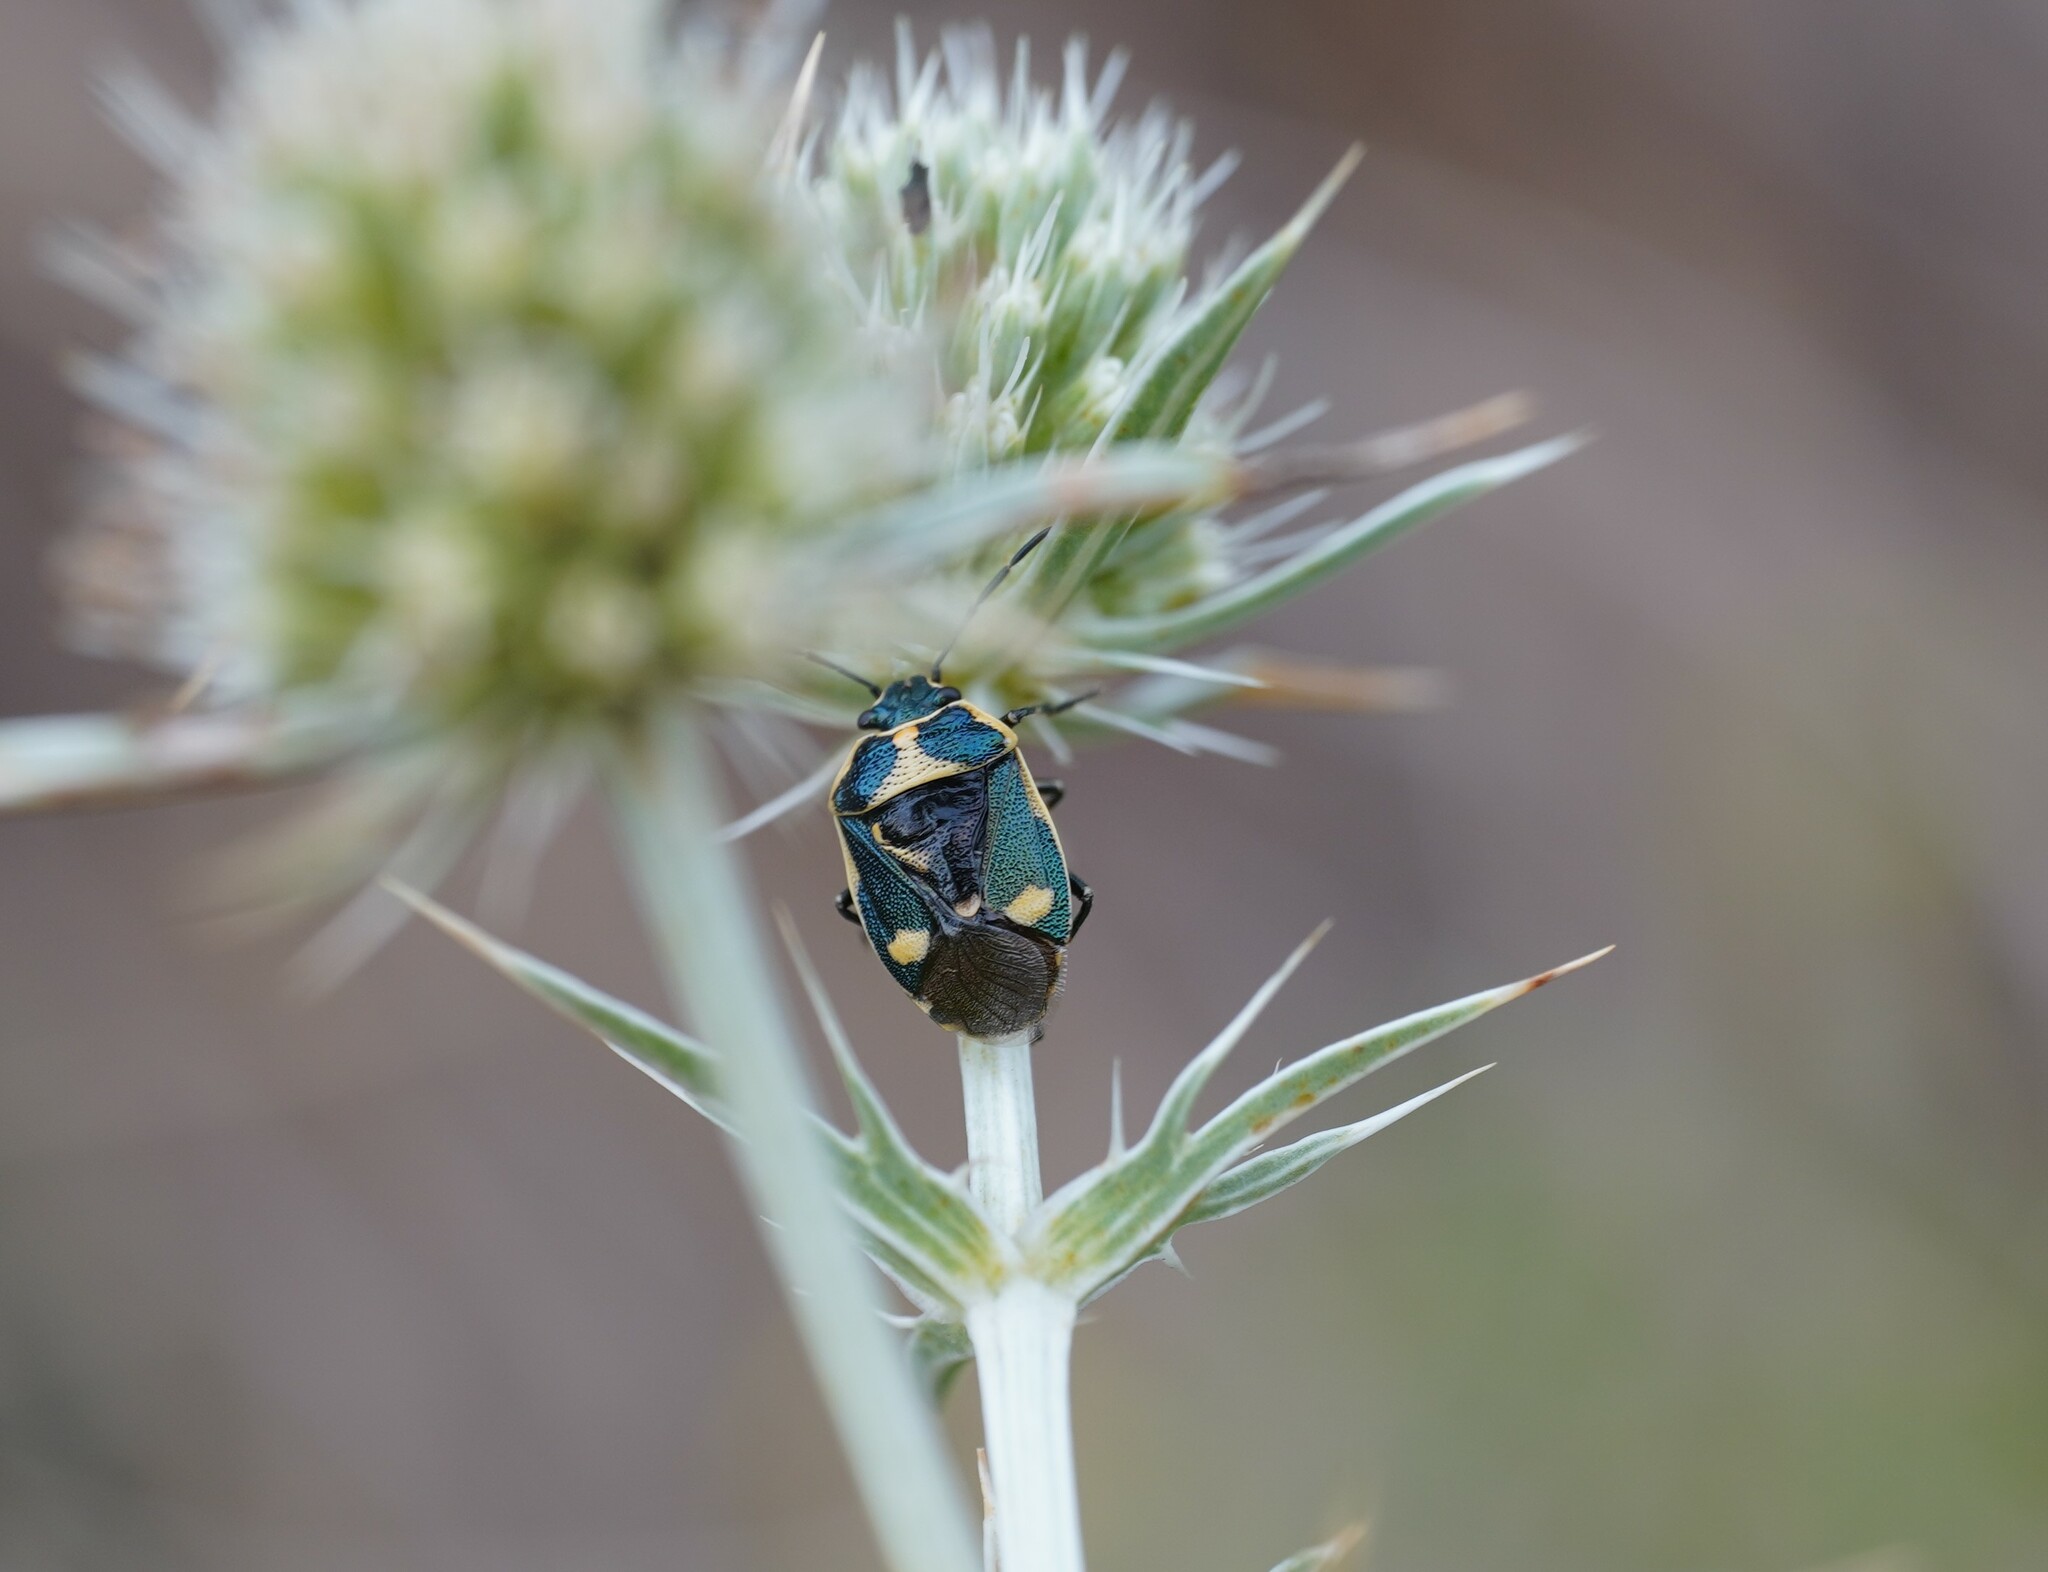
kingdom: Animalia
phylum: Arthropoda
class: Insecta
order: Hemiptera
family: Pentatomidae
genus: Eurydema
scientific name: Eurydema oleracea
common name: Cabbage bug
